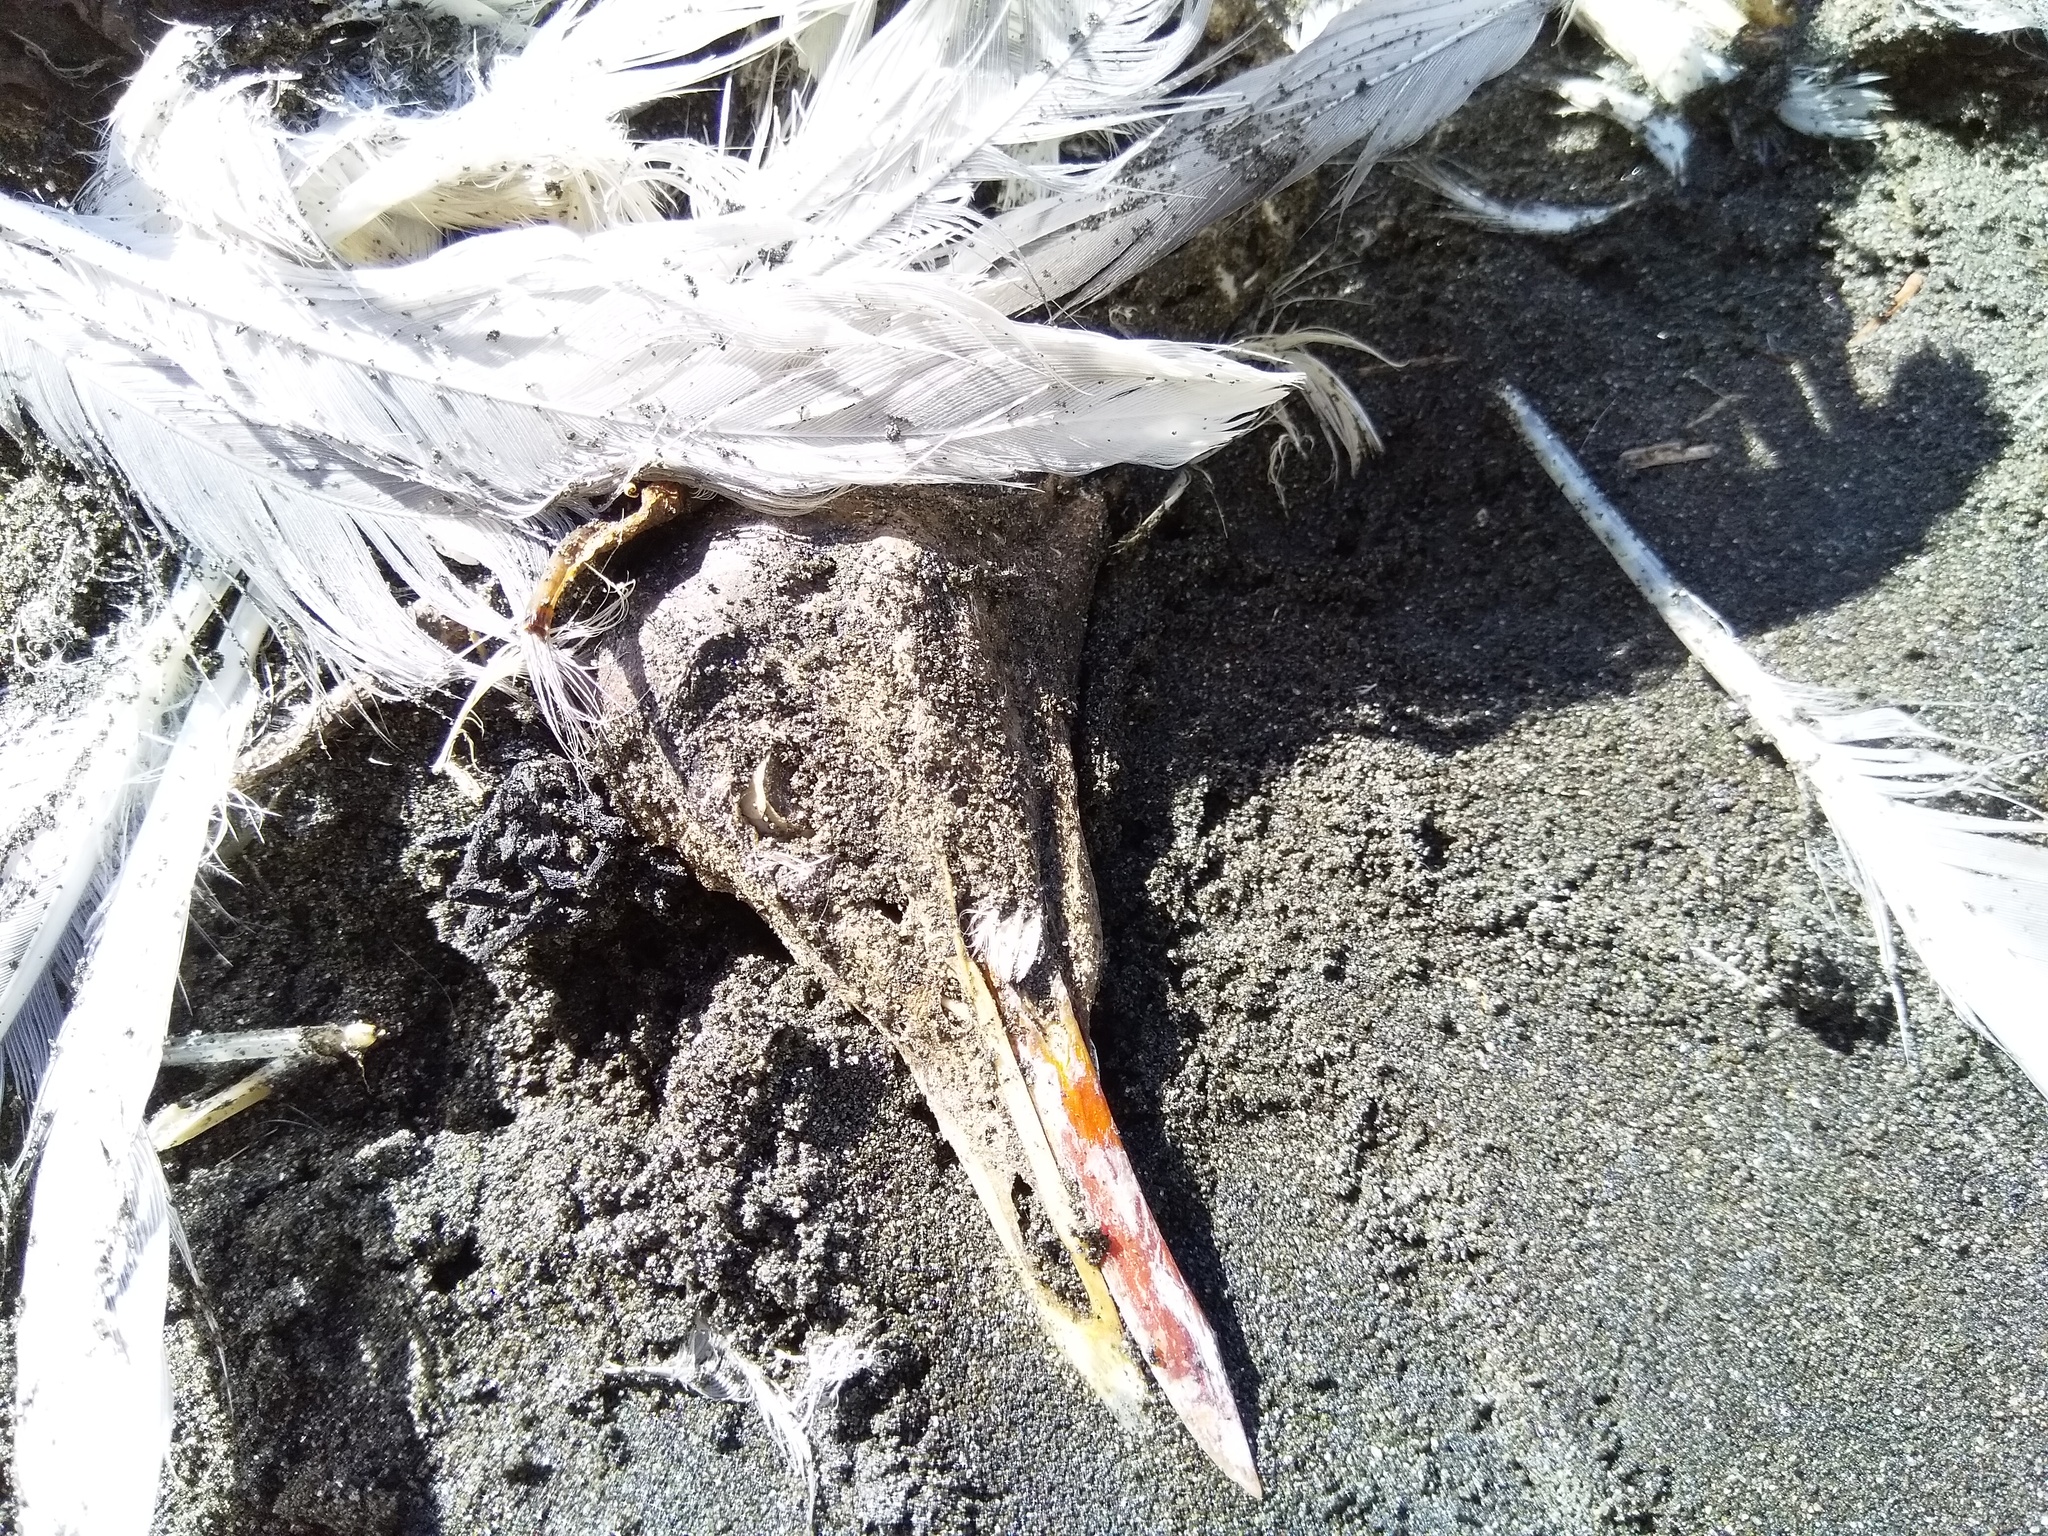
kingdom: Animalia
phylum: Chordata
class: Aves
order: Charadriiformes
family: Laridae
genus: Chroicocephalus
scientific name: Chroicocephalus novaehollandiae
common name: Silver gull
